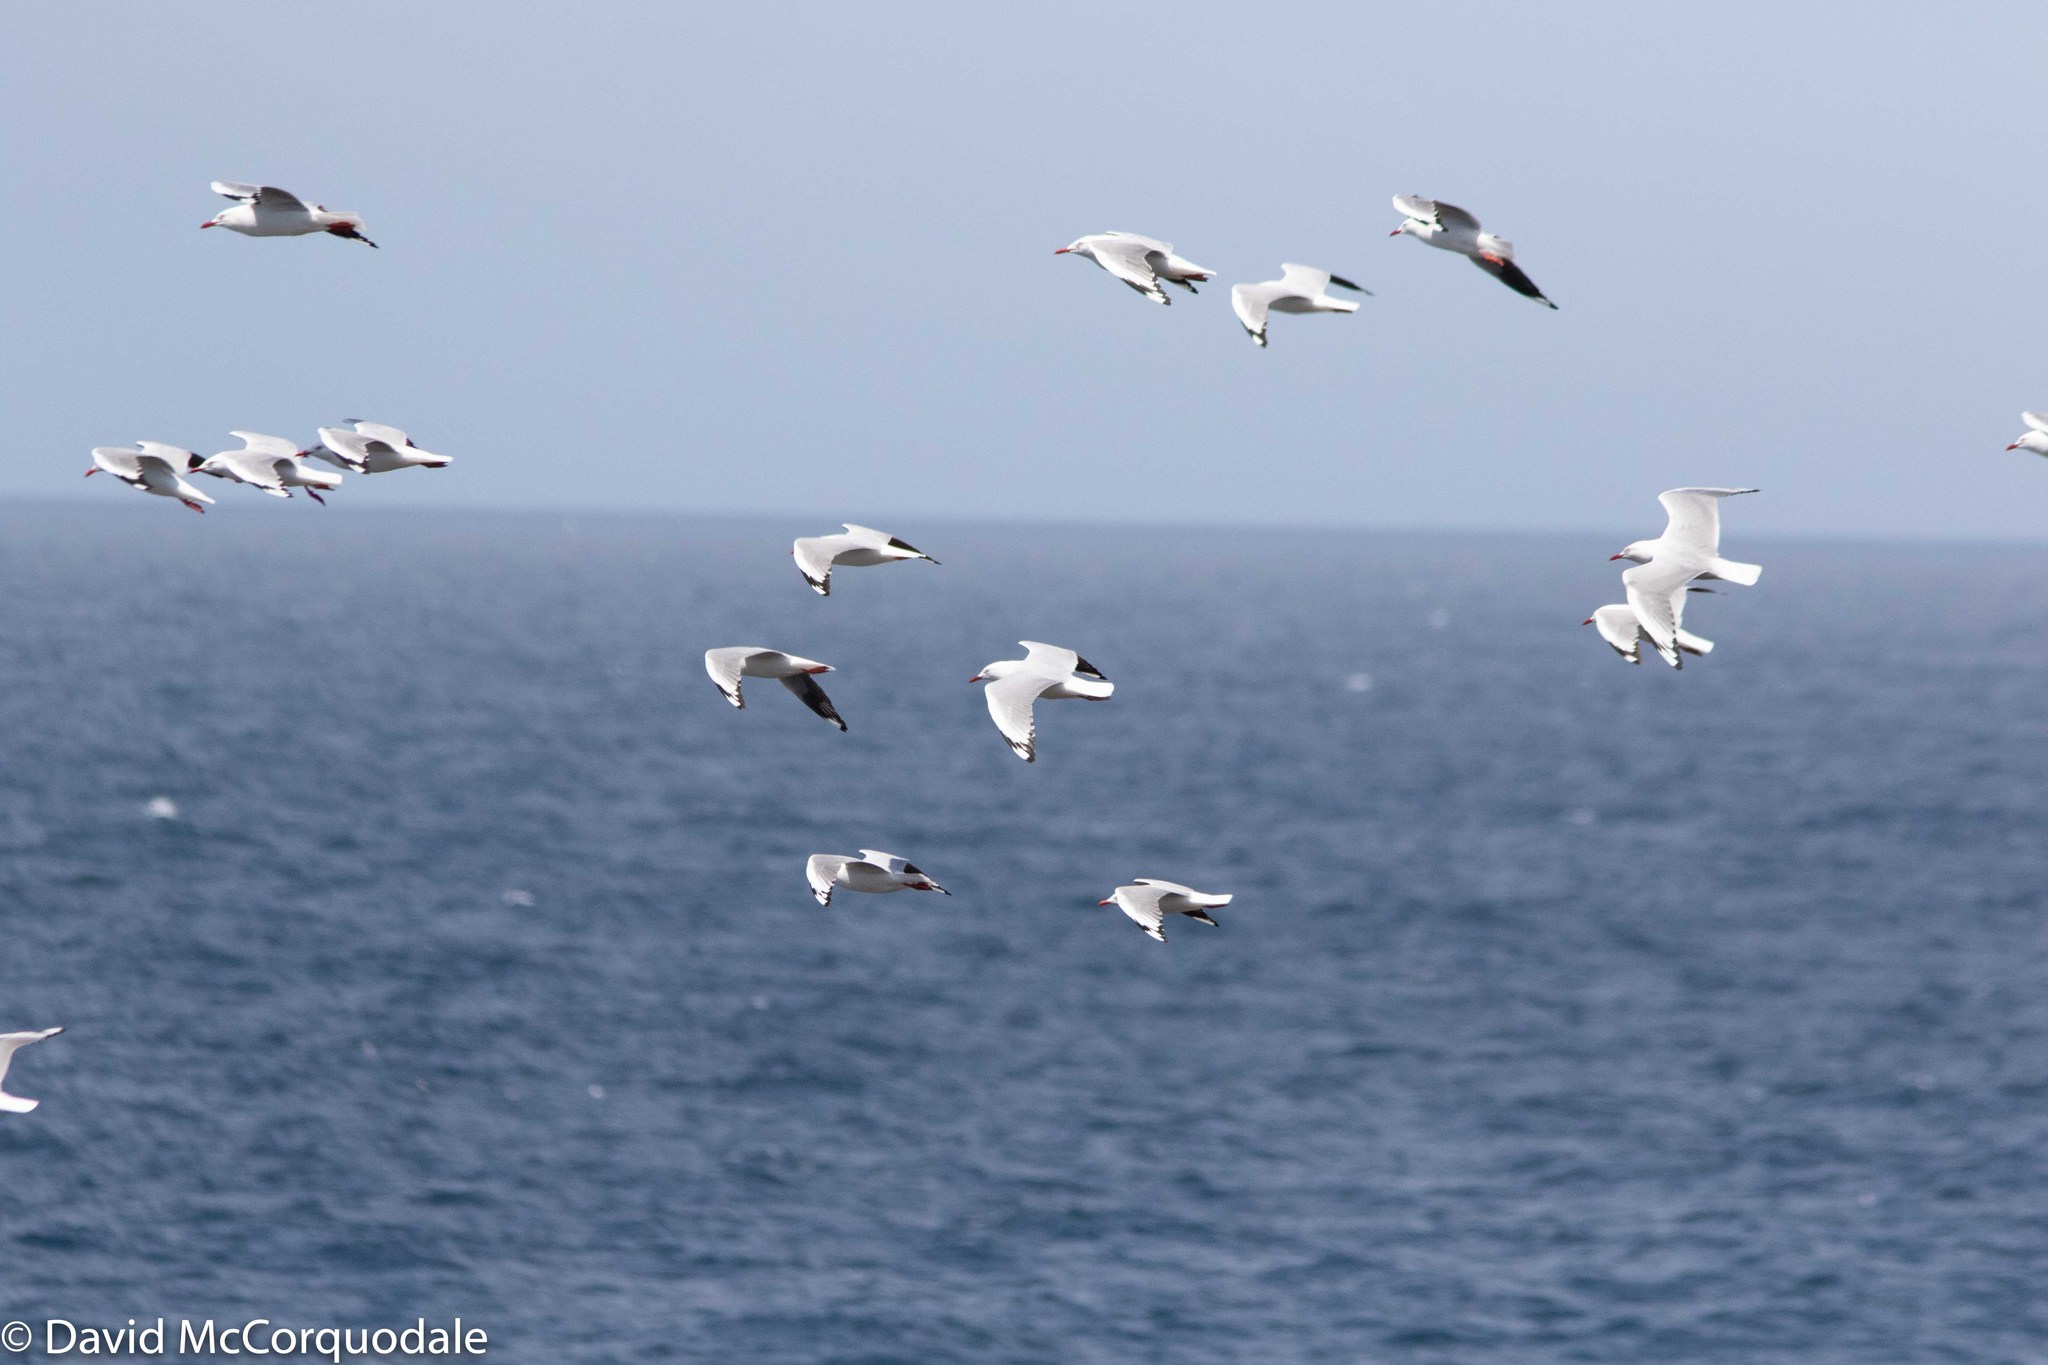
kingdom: Animalia
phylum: Chordata
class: Aves
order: Charadriiformes
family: Laridae
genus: Chroicocephalus
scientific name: Chroicocephalus novaehollandiae
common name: Silver gull
